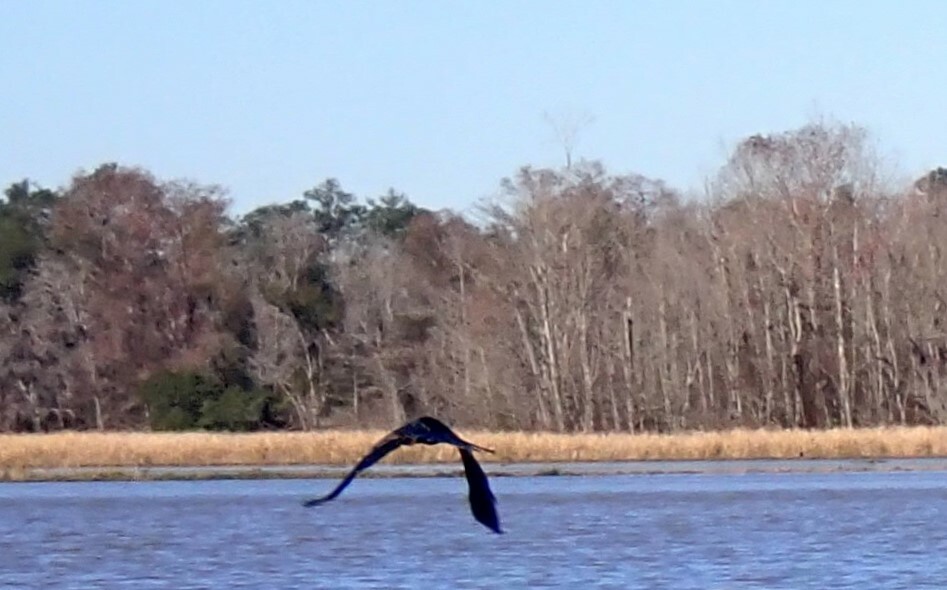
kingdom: Animalia
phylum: Chordata
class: Aves
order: Suliformes
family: Anhingidae
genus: Anhinga
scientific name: Anhinga anhinga
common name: Anhinga
